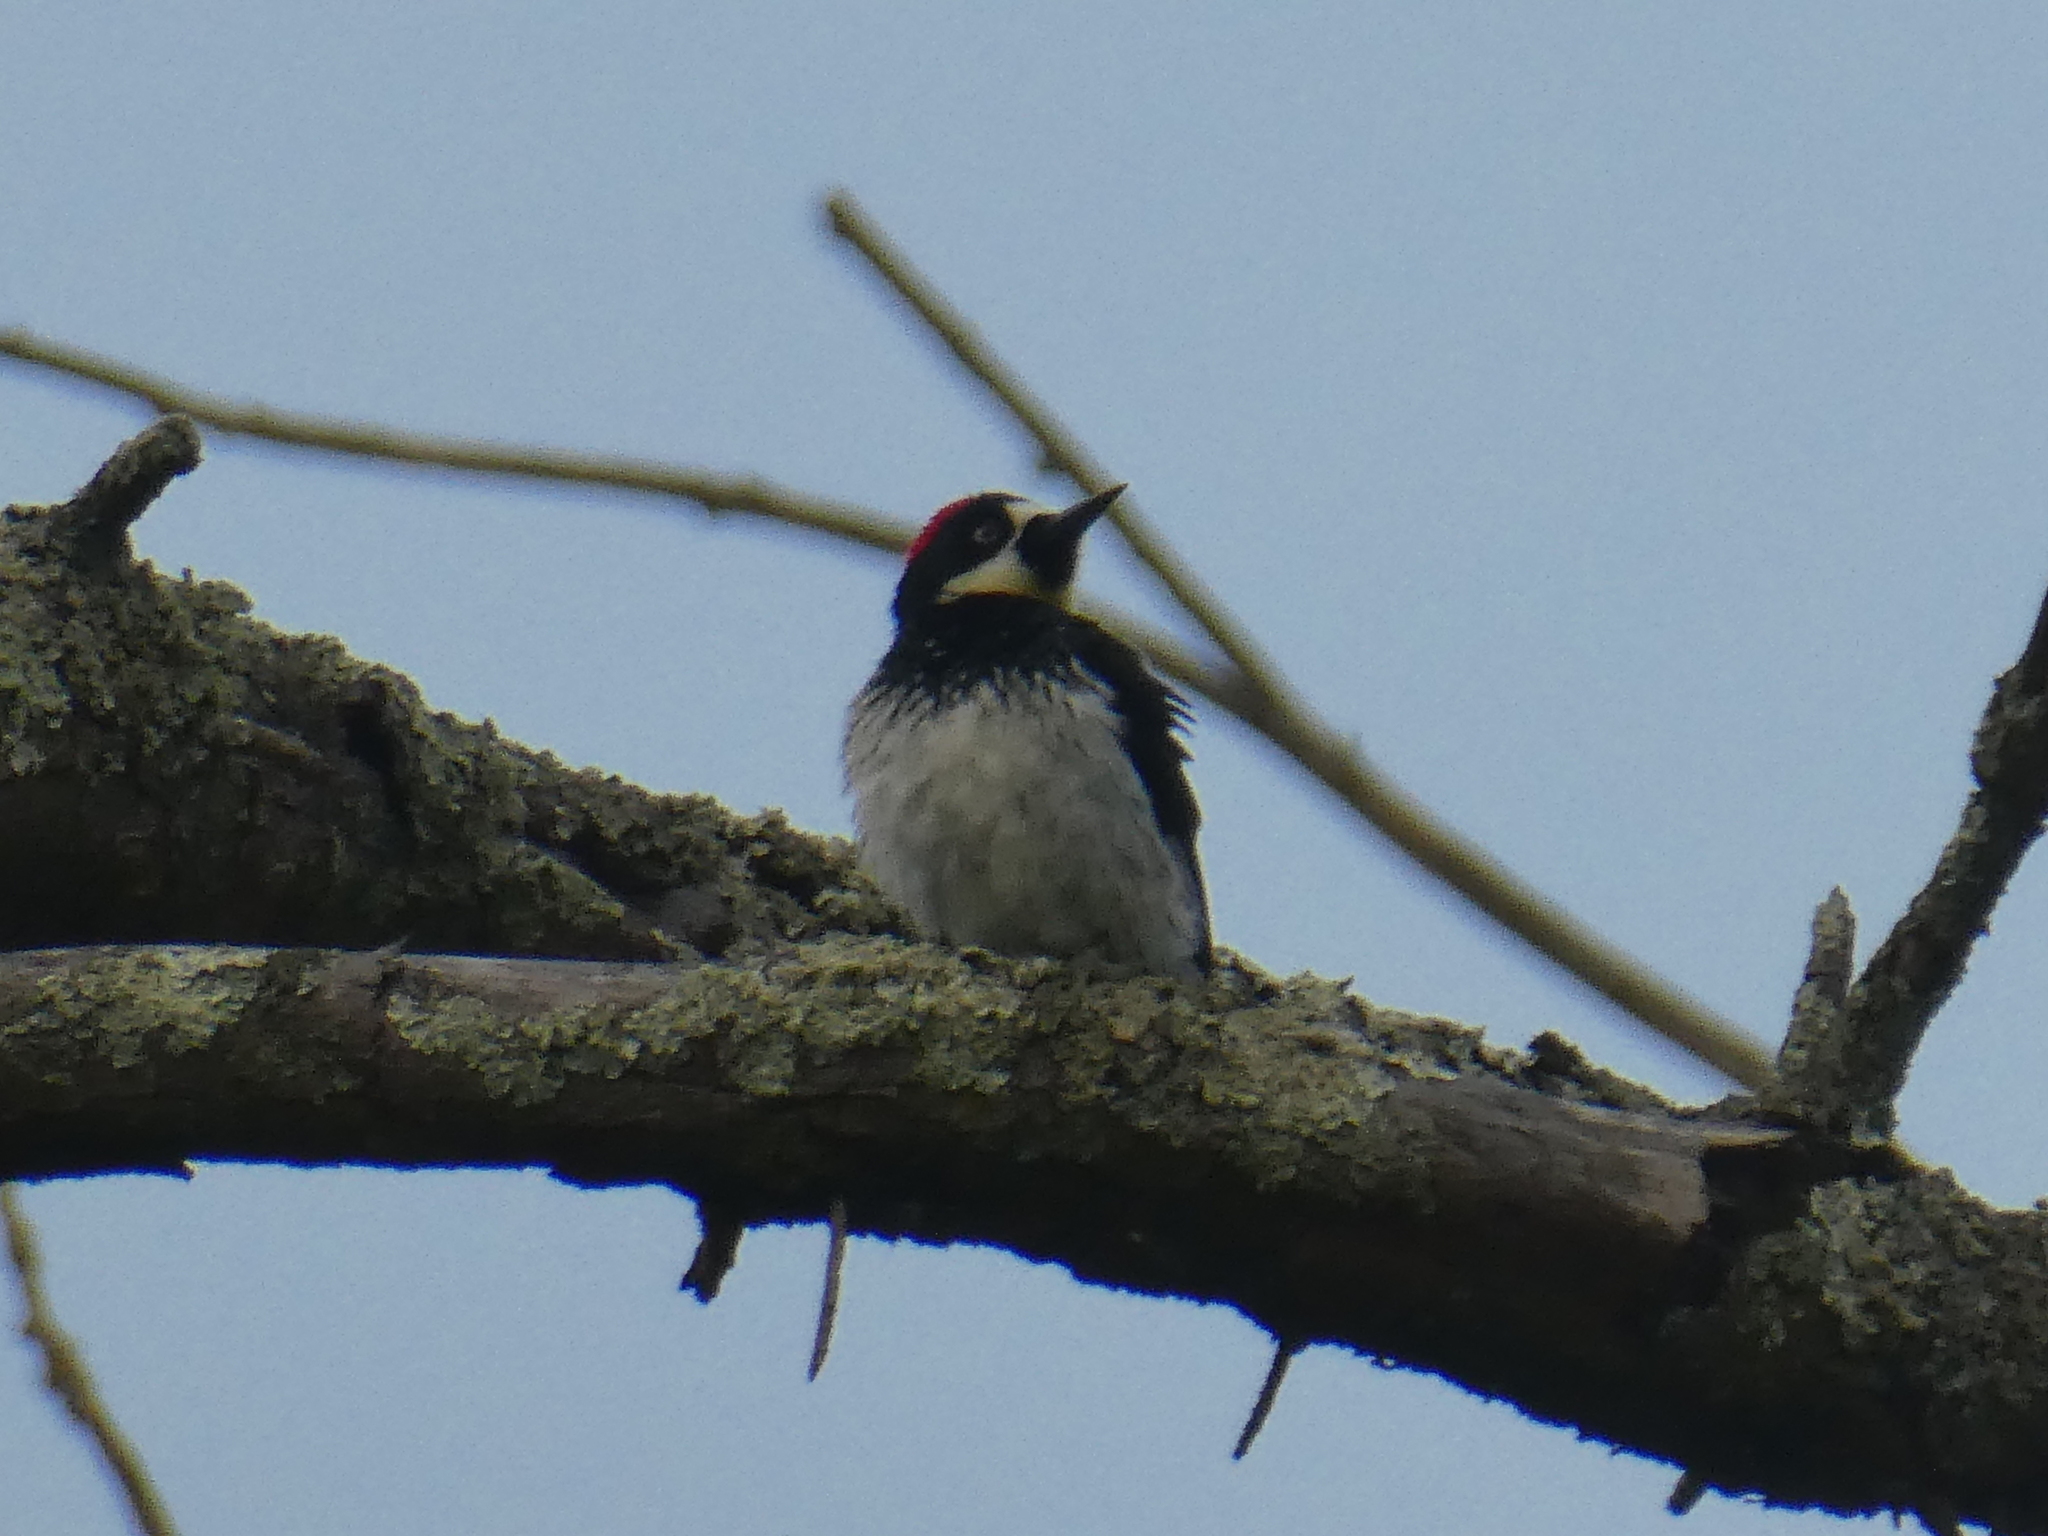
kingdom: Animalia
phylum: Chordata
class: Aves
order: Piciformes
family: Picidae
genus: Melanerpes
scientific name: Melanerpes formicivorus
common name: Acorn woodpecker
